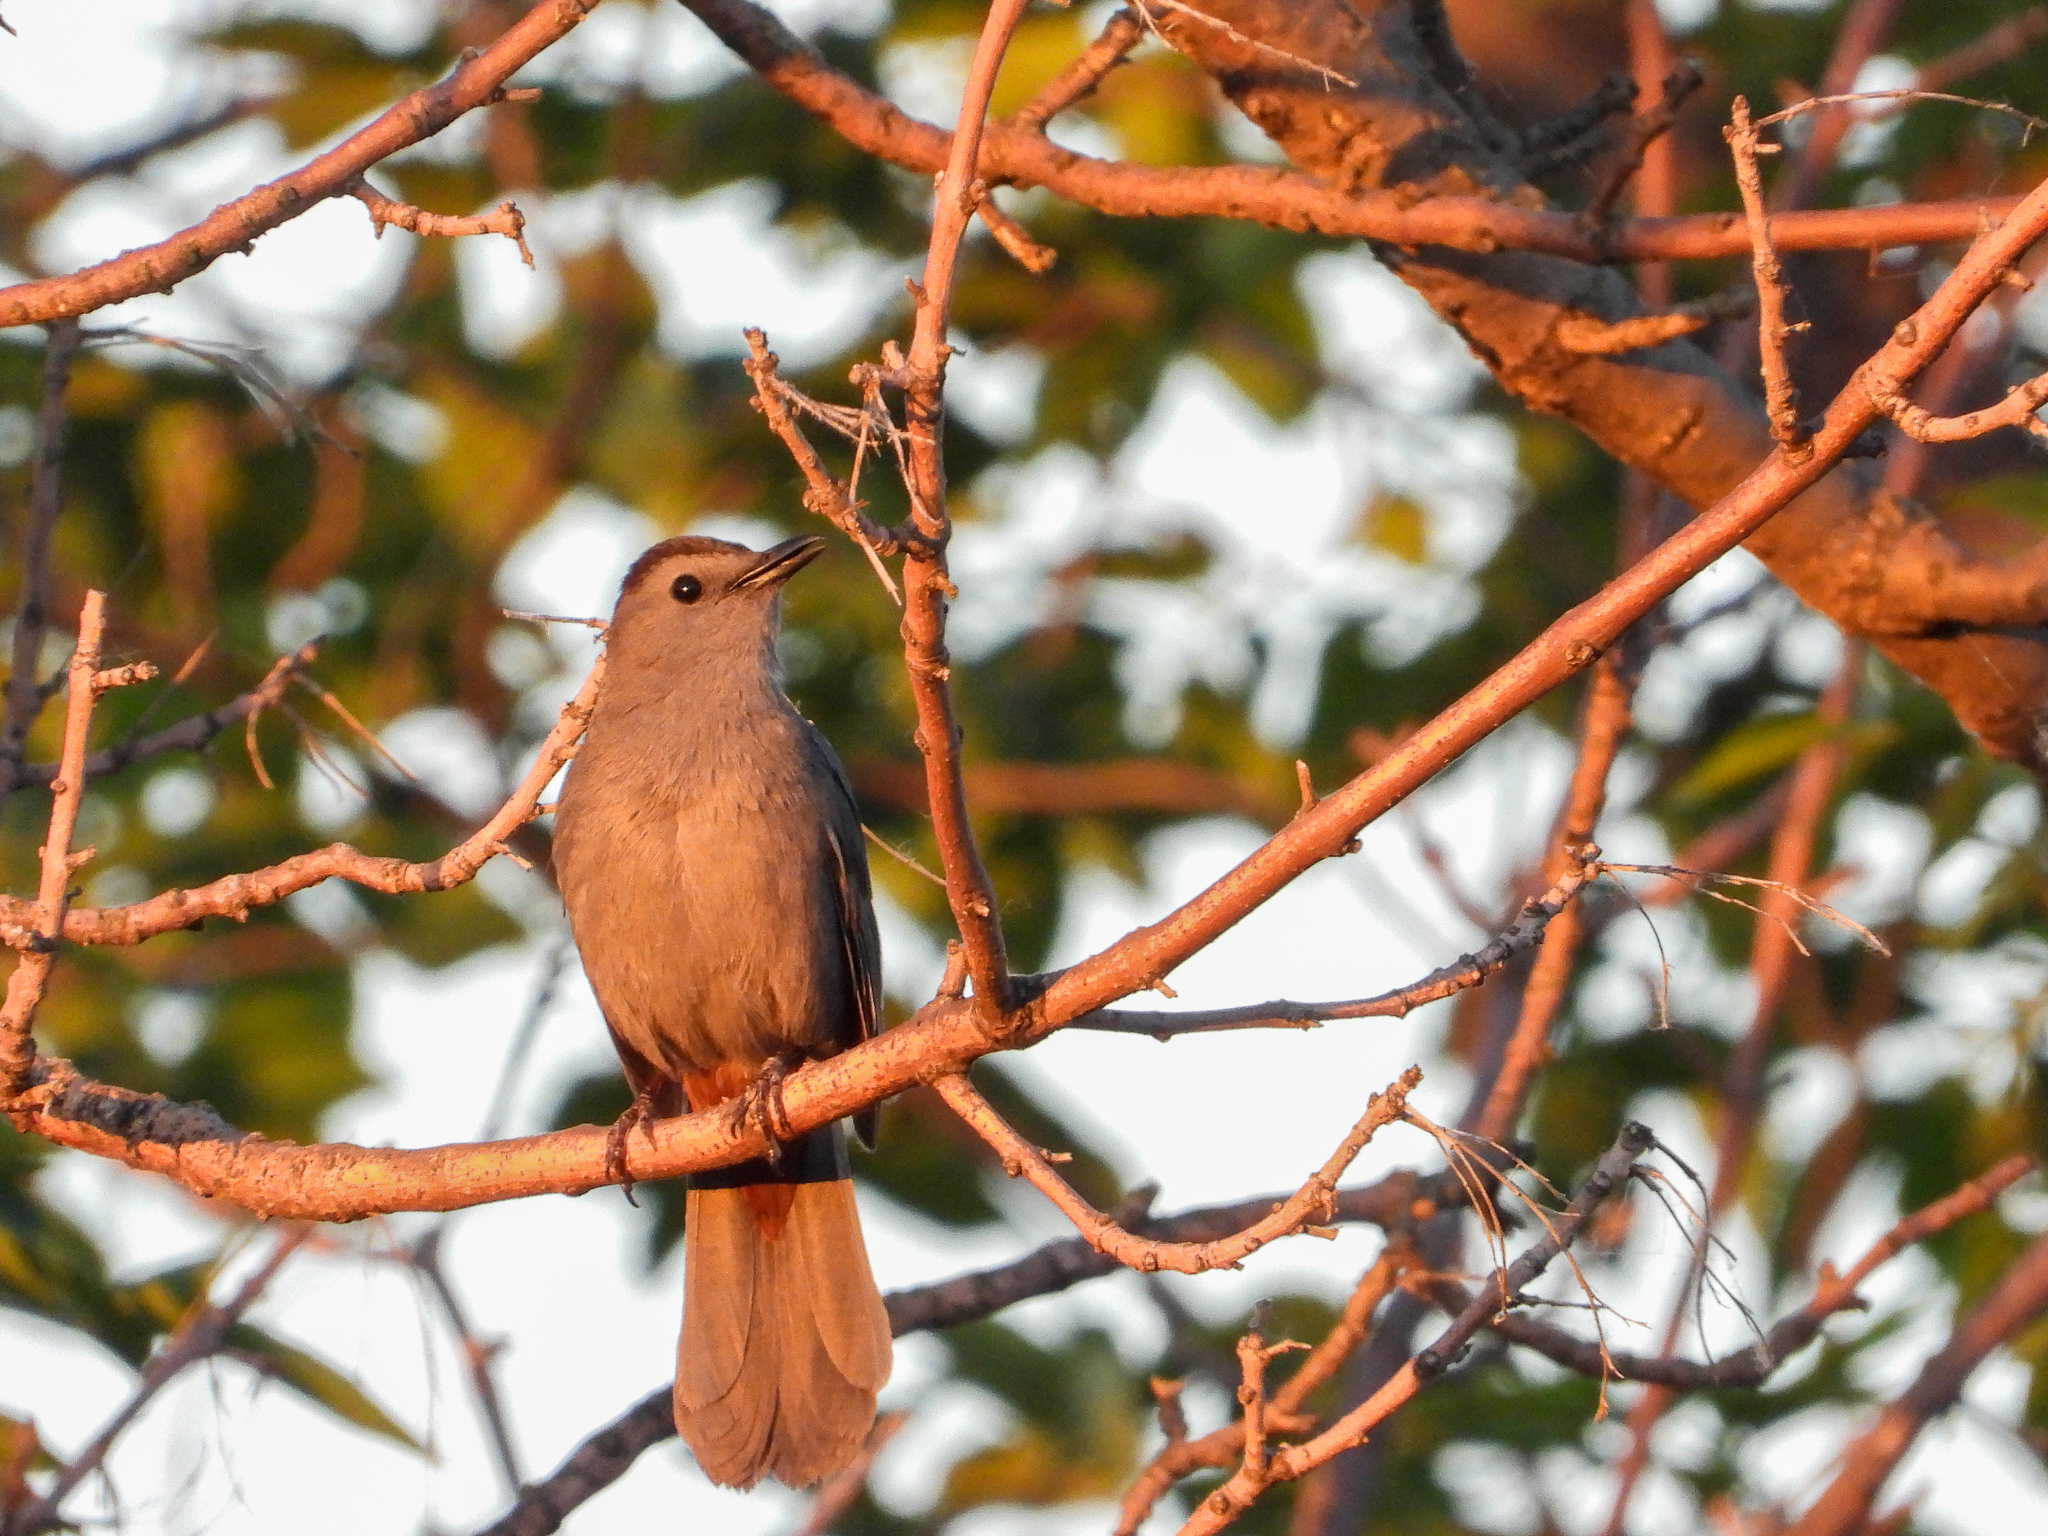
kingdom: Animalia
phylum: Chordata
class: Aves
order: Passeriformes
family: Mimidae
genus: Dumetella
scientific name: Dumetella carolinensis
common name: Gray catbird
